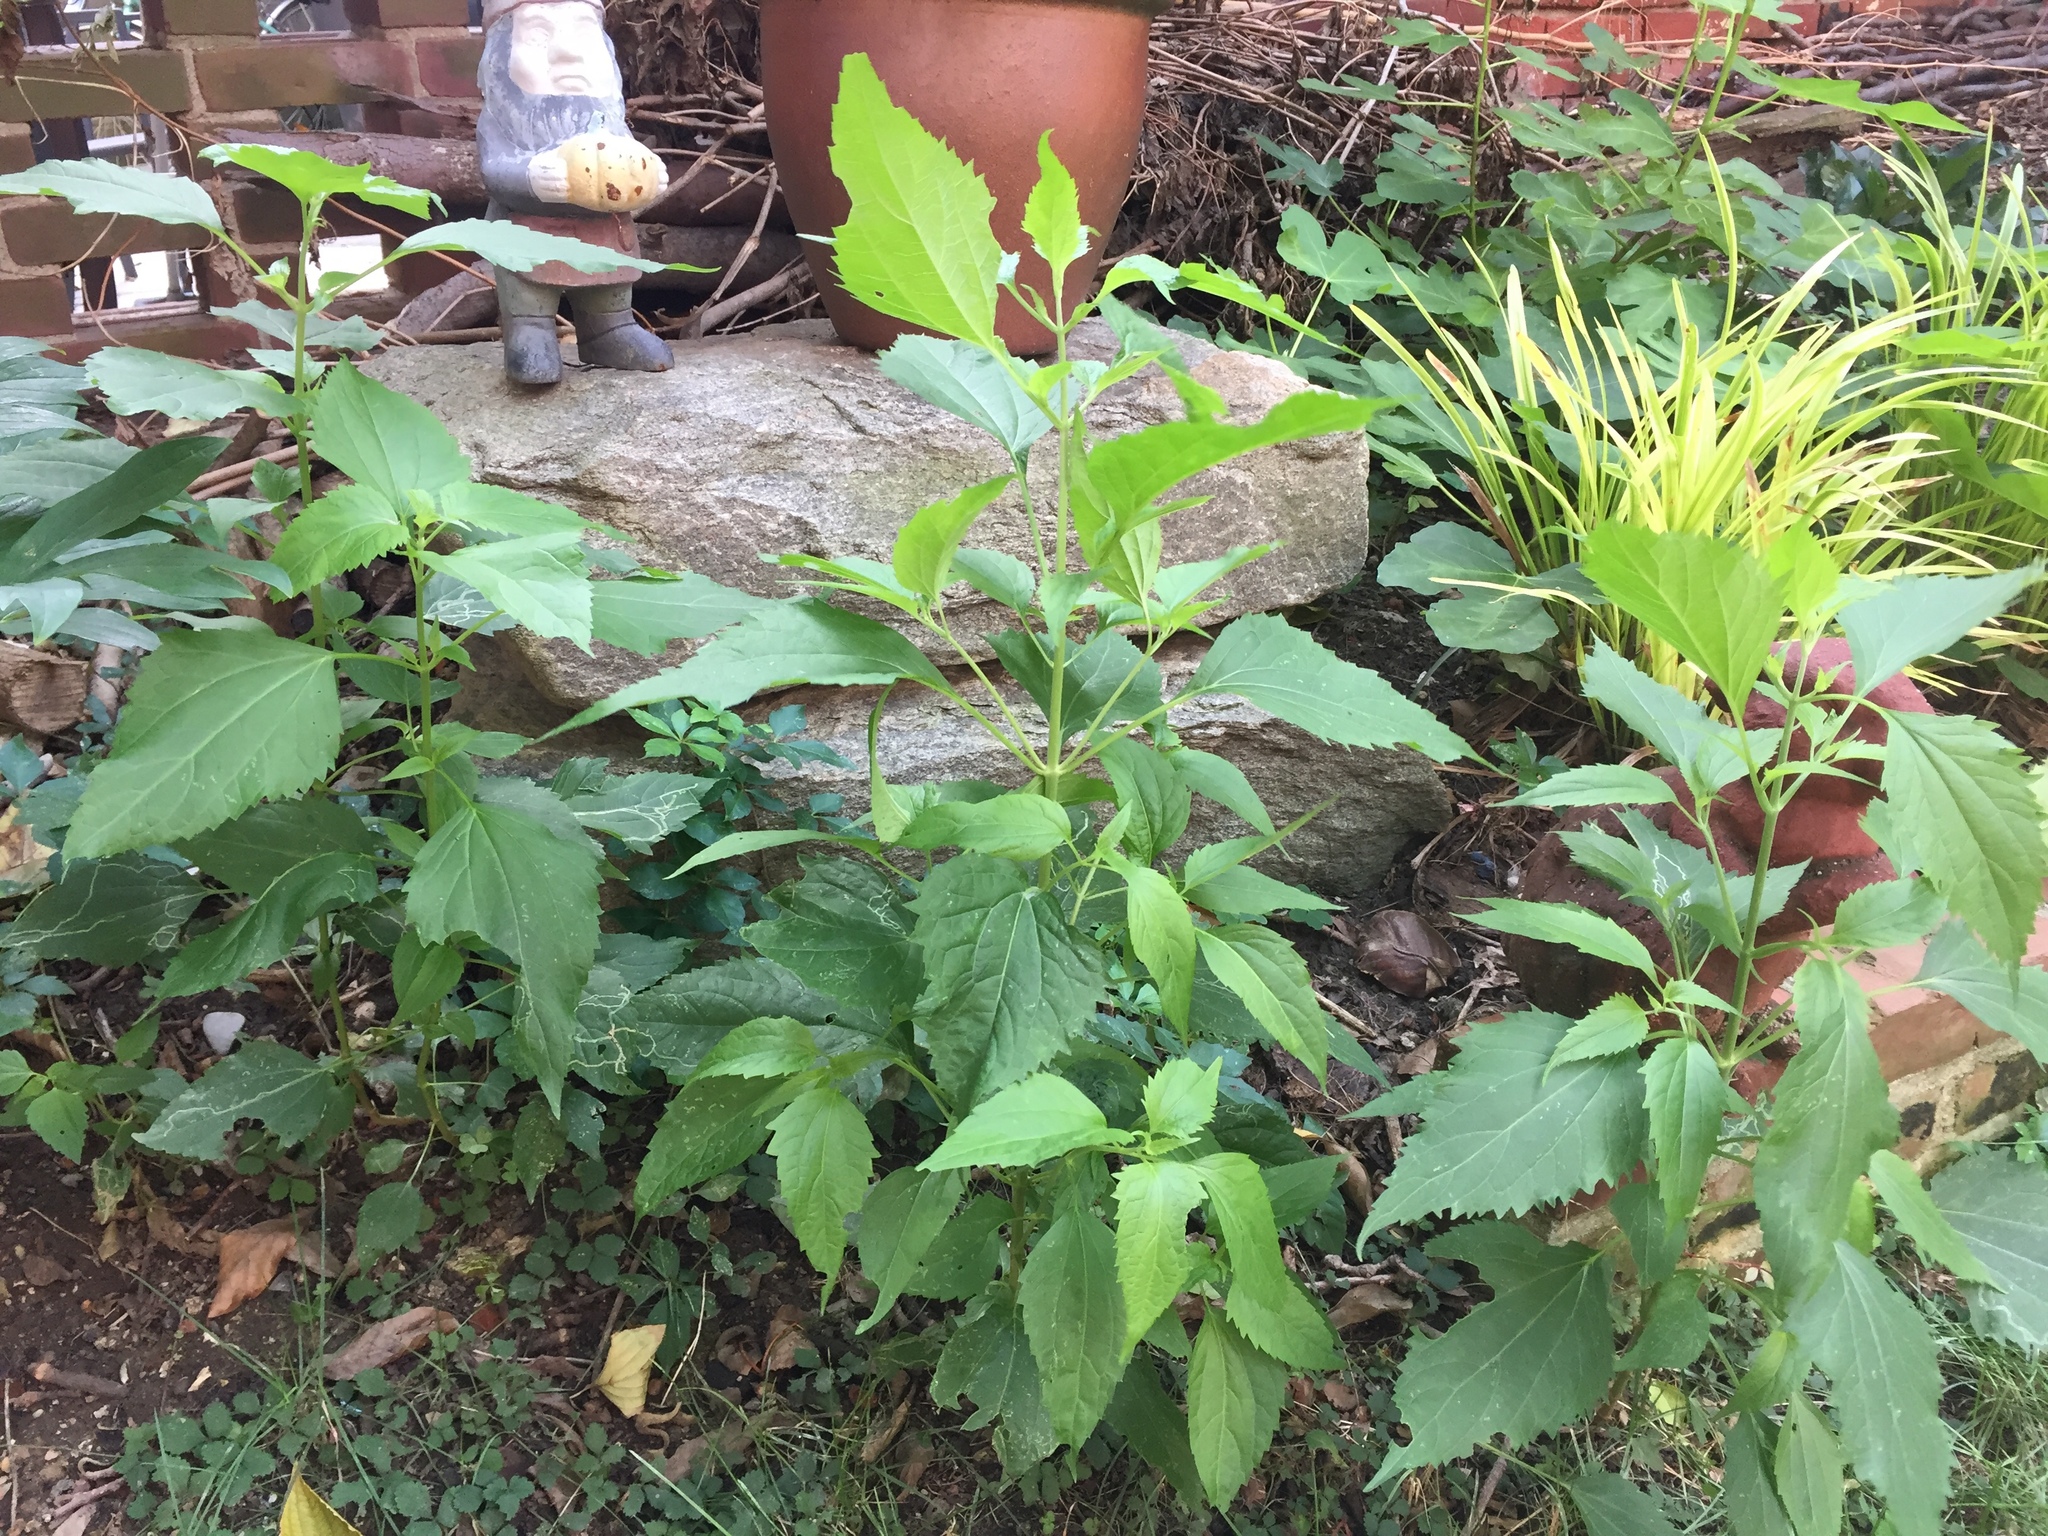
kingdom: Plantae
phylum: Tracheophyta
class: Magnoliopsida
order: Asterales
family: Asteraceae
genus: Ageratina
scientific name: Ageratina altissima
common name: White snakeroot
